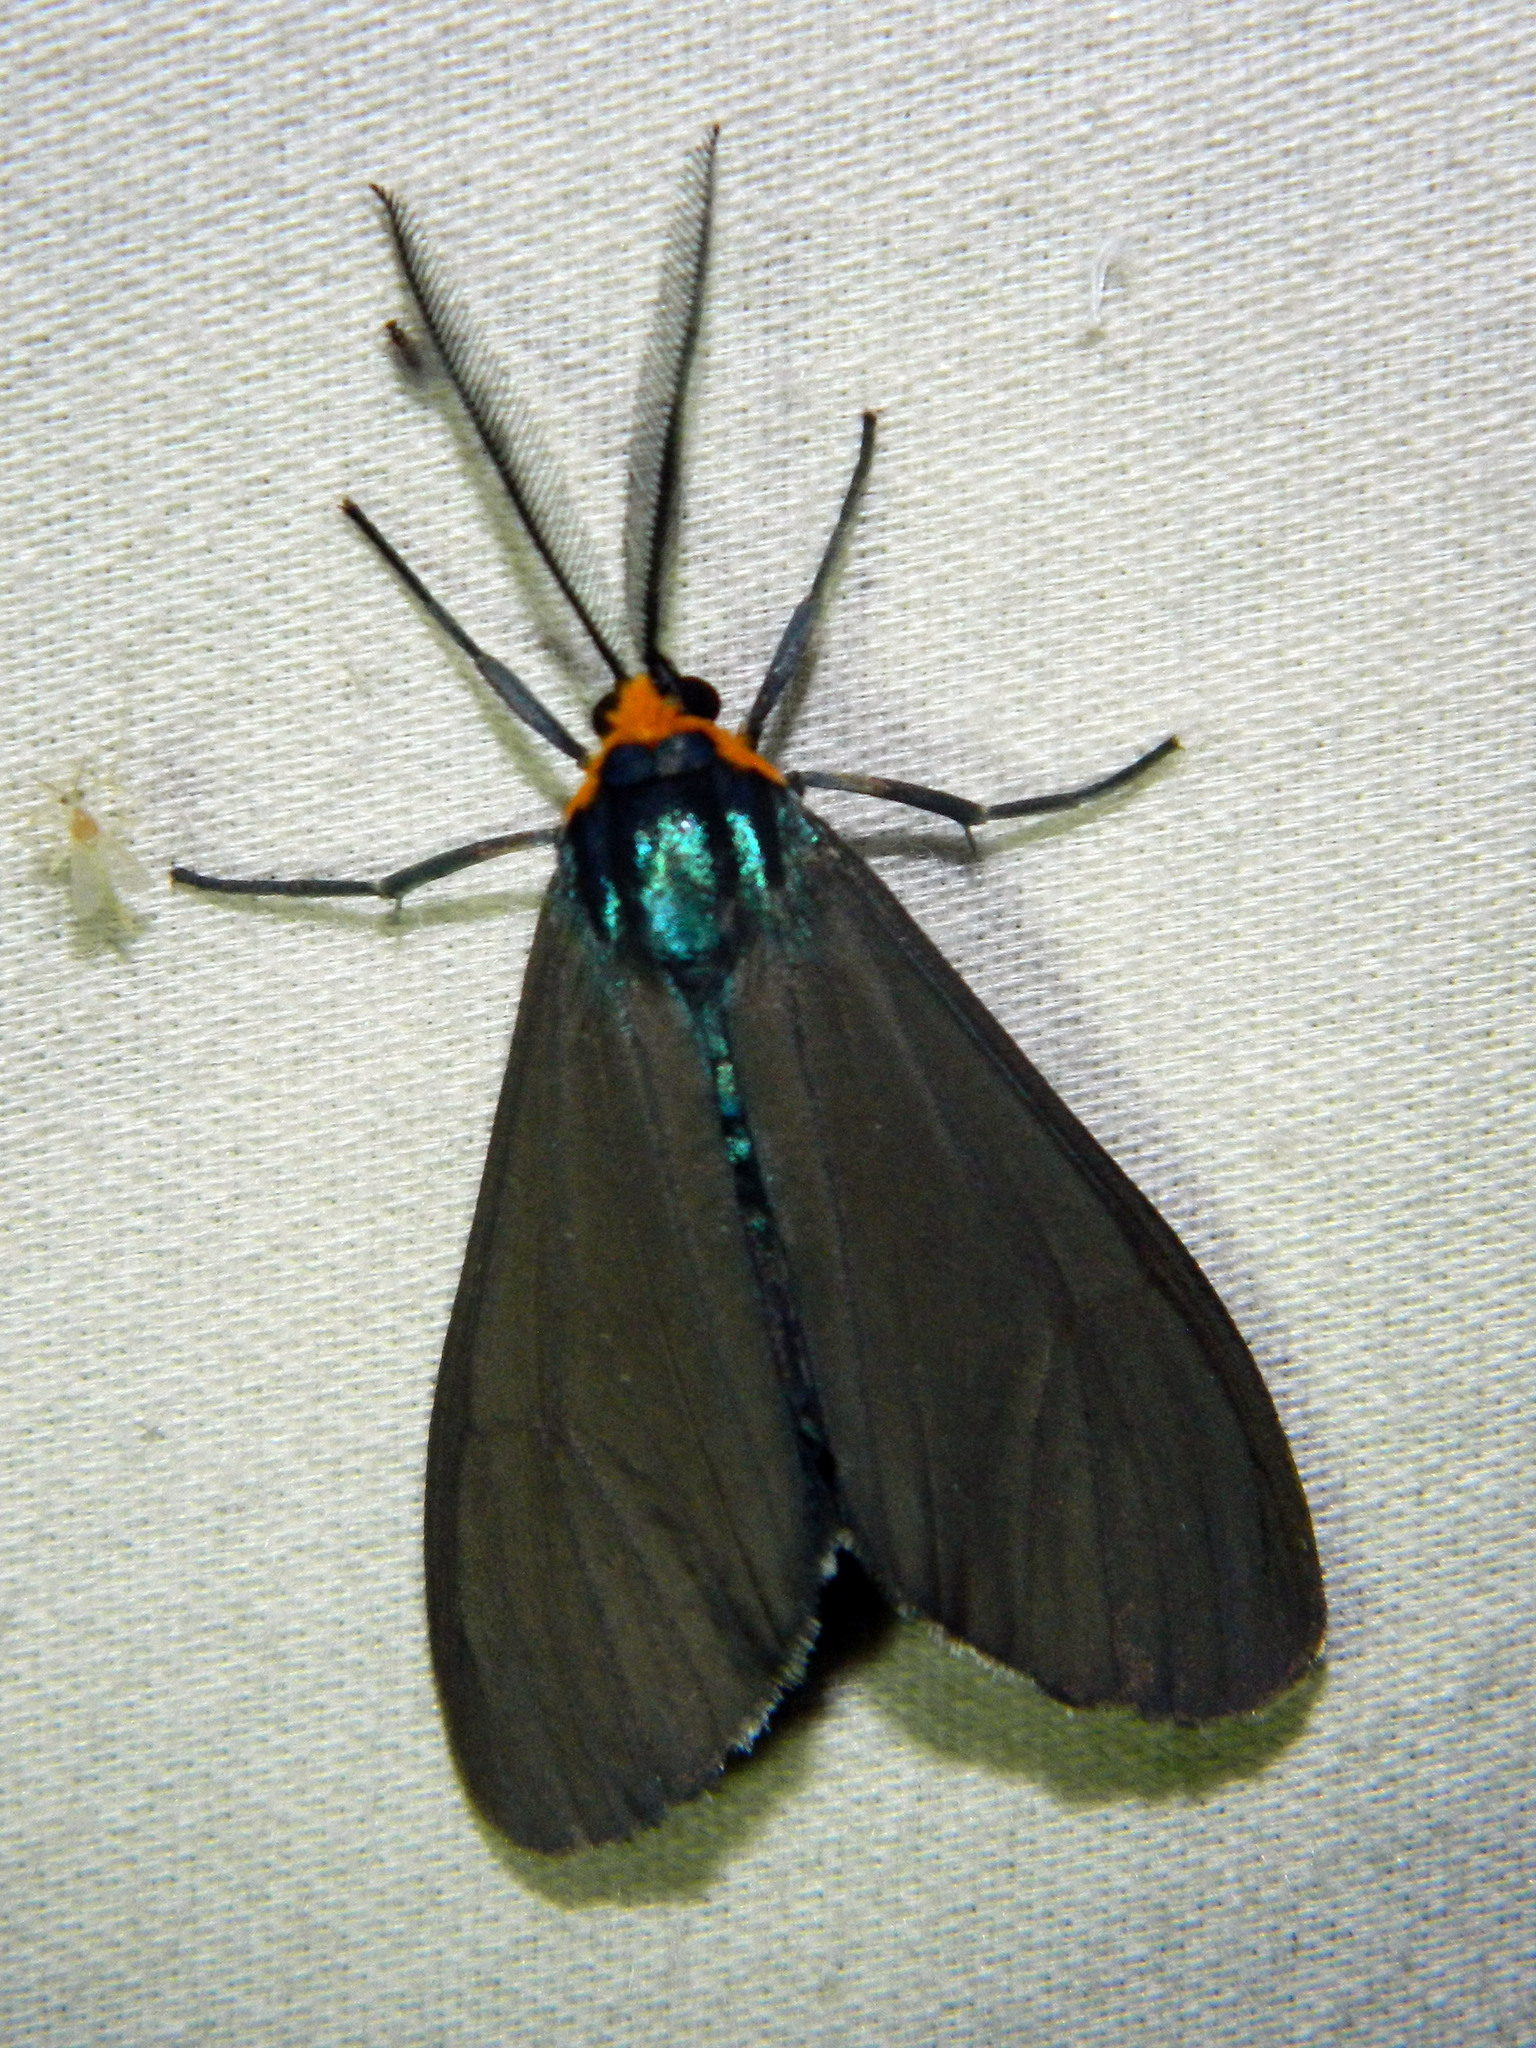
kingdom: Animalia
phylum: Arthropoda
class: Insecta
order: Lepidoptera
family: Erebidae
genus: Ctenucha
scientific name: Ctenucha virginica
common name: Virginia ctenucha moth
